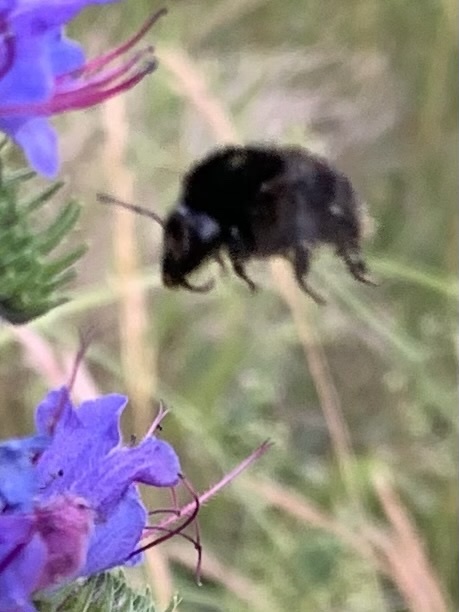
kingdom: Animalia
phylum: Arthropoda
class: Insecta
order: Hymenoptera
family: Apidae
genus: Bombus
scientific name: Bombus humilis
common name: Brown-banded carder-bee
